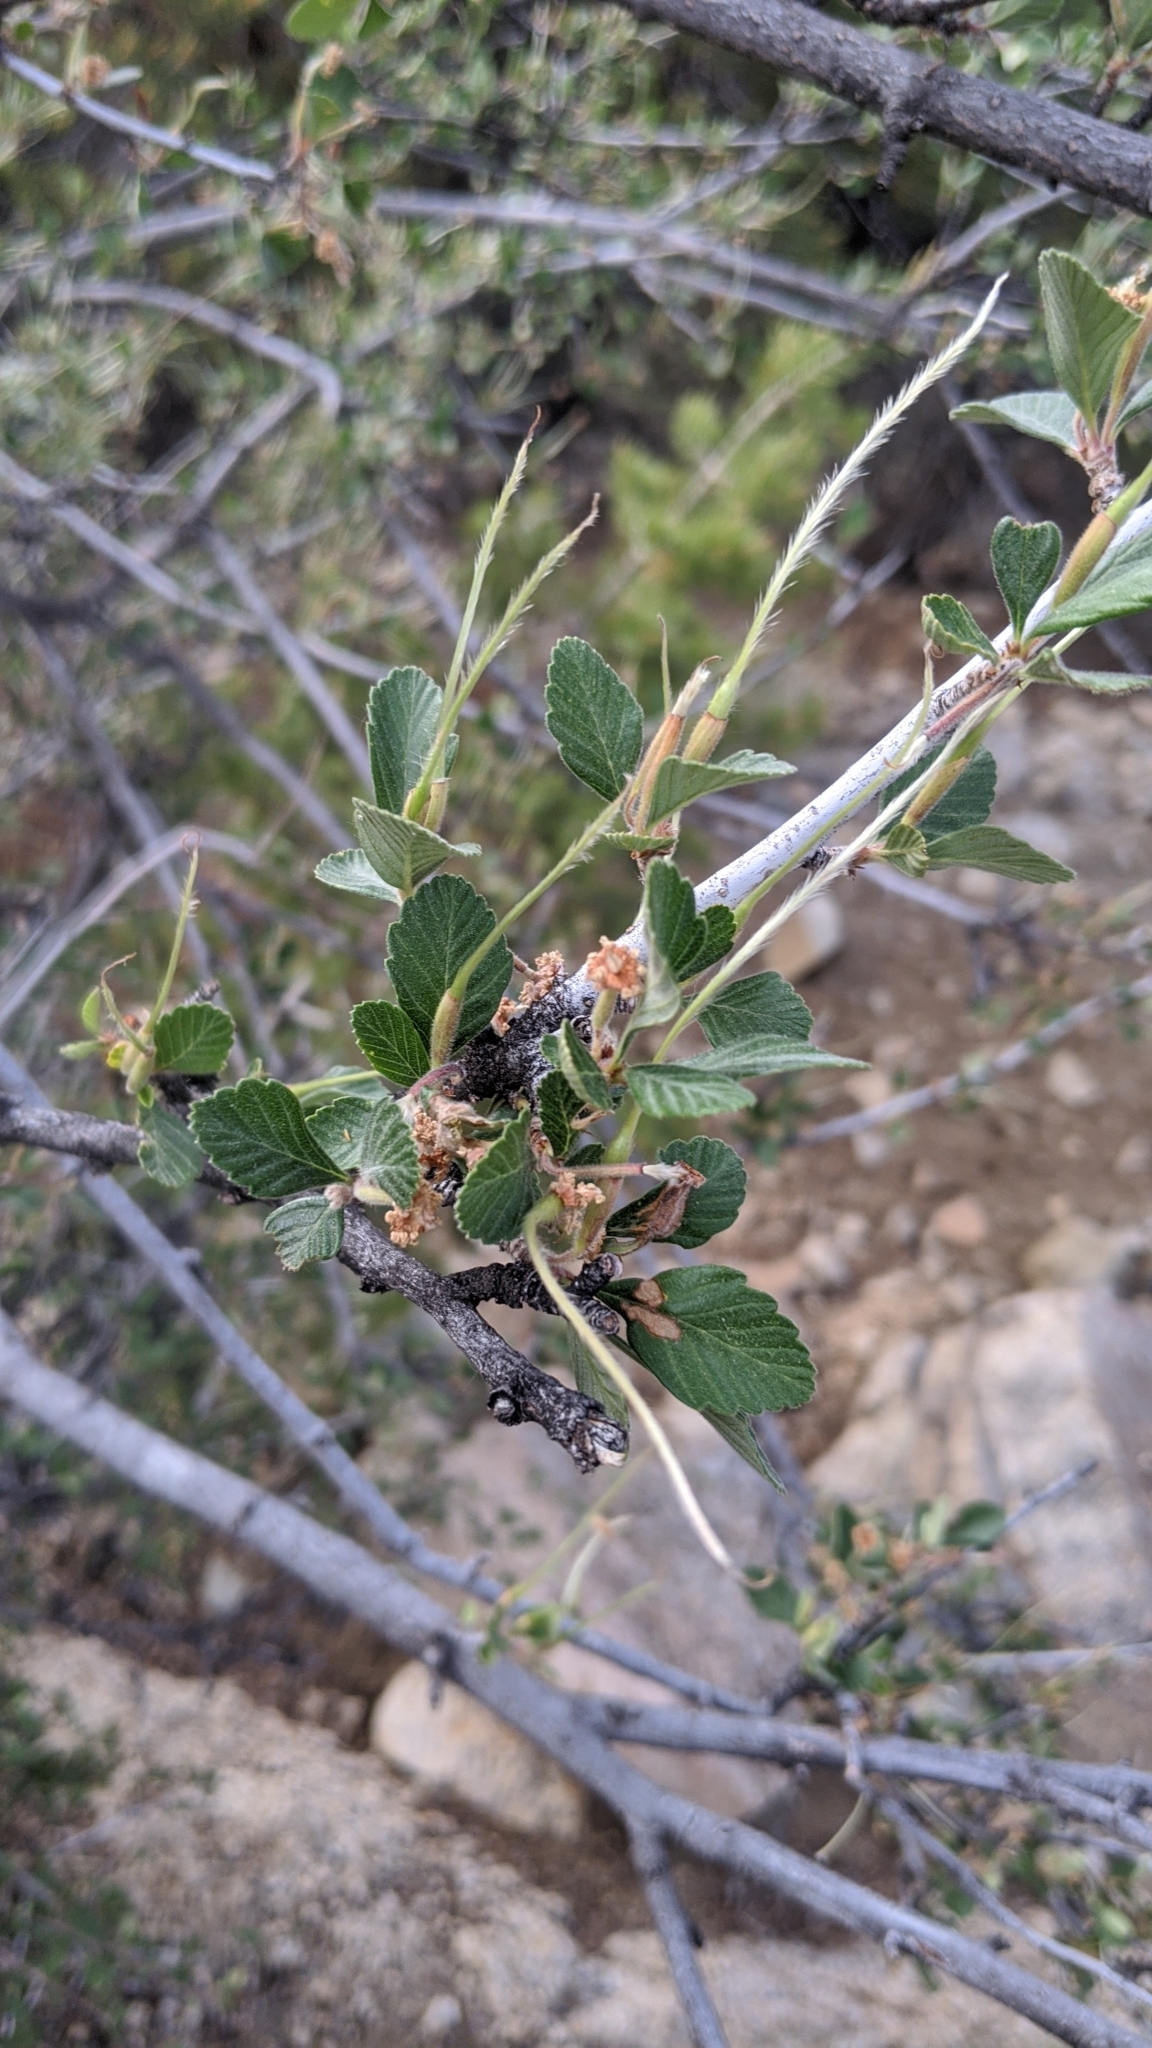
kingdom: Plantae
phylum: Tracheophyta
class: Magnoliopsida
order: Rosales
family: Rosaceae
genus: Cercocarpus
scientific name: Cercocarpus montanus
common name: Alder-leaf cercocarpus
